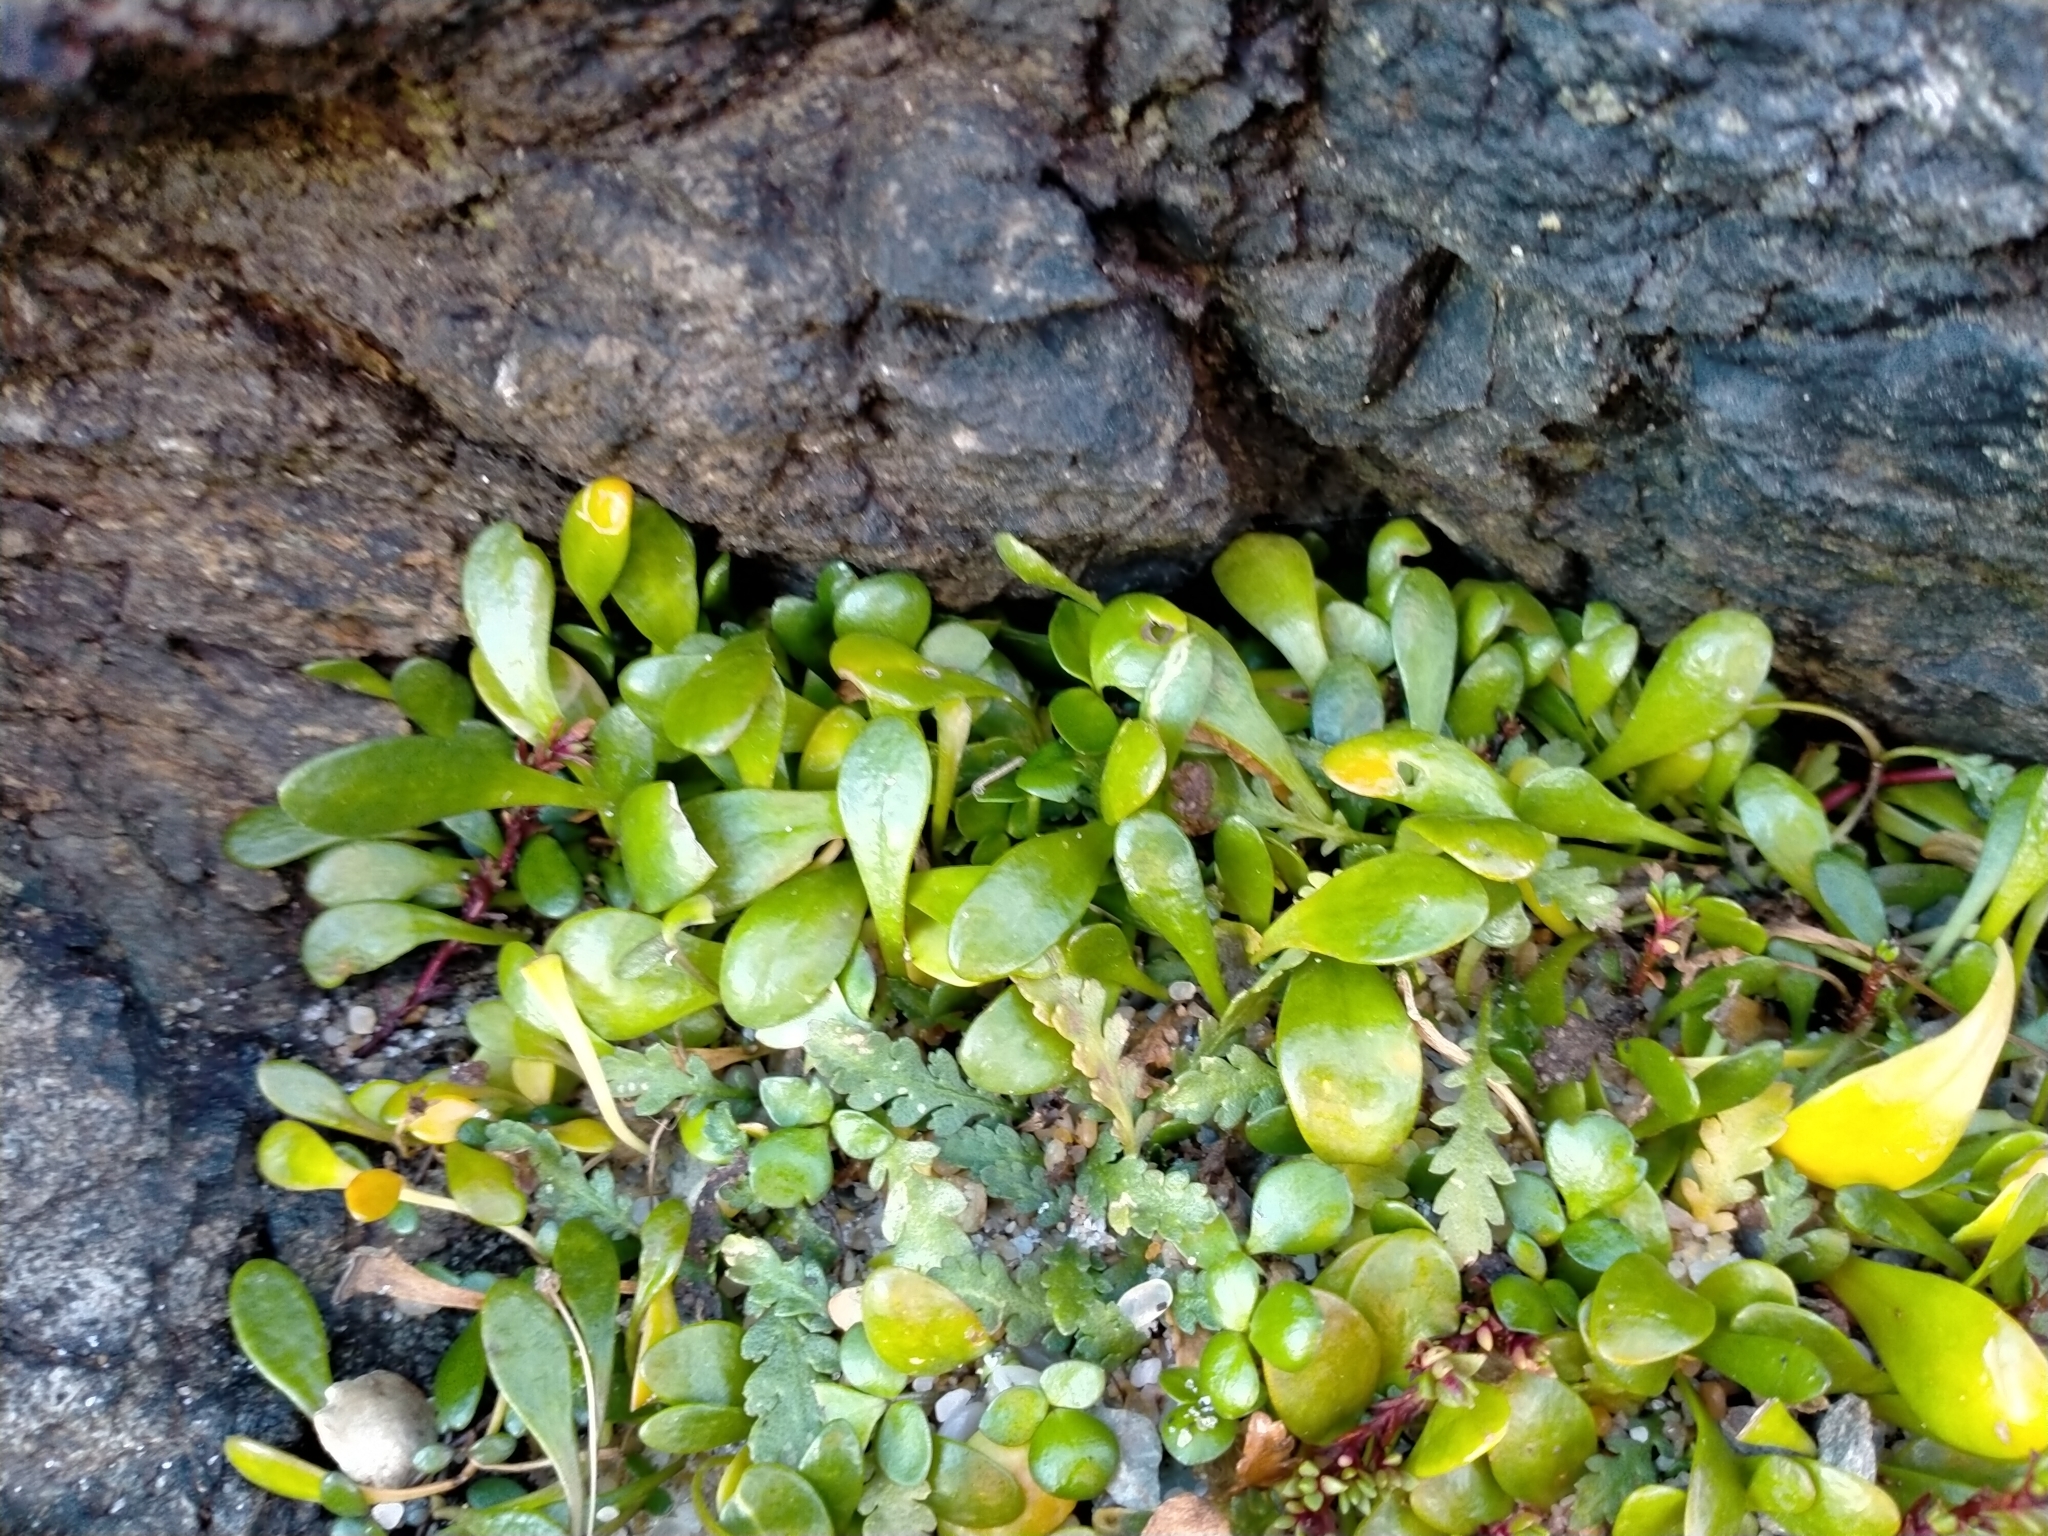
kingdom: Plantae
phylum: Tracheophyta
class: Magnoliopsida
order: Asterales
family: Goodeniaceae
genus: Goodenia
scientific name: Goodenia radicans
